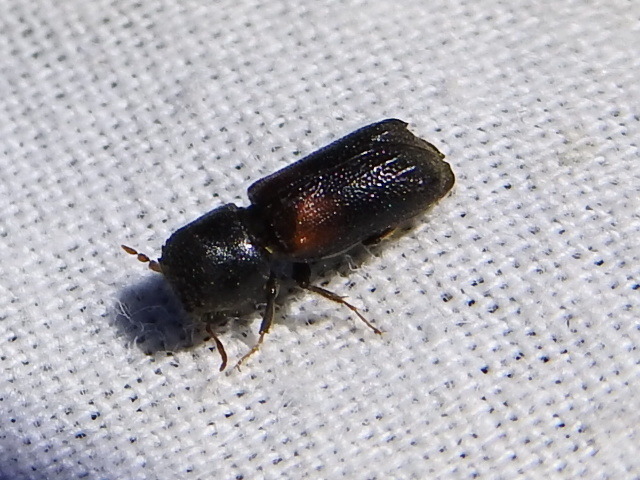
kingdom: Animalia
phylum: Arthropoda
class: Insecta
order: Coleoptera
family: Bostrichidae
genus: Xylobiops
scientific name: Xylobiops basilaris
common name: Red-shouldered bostrichid
